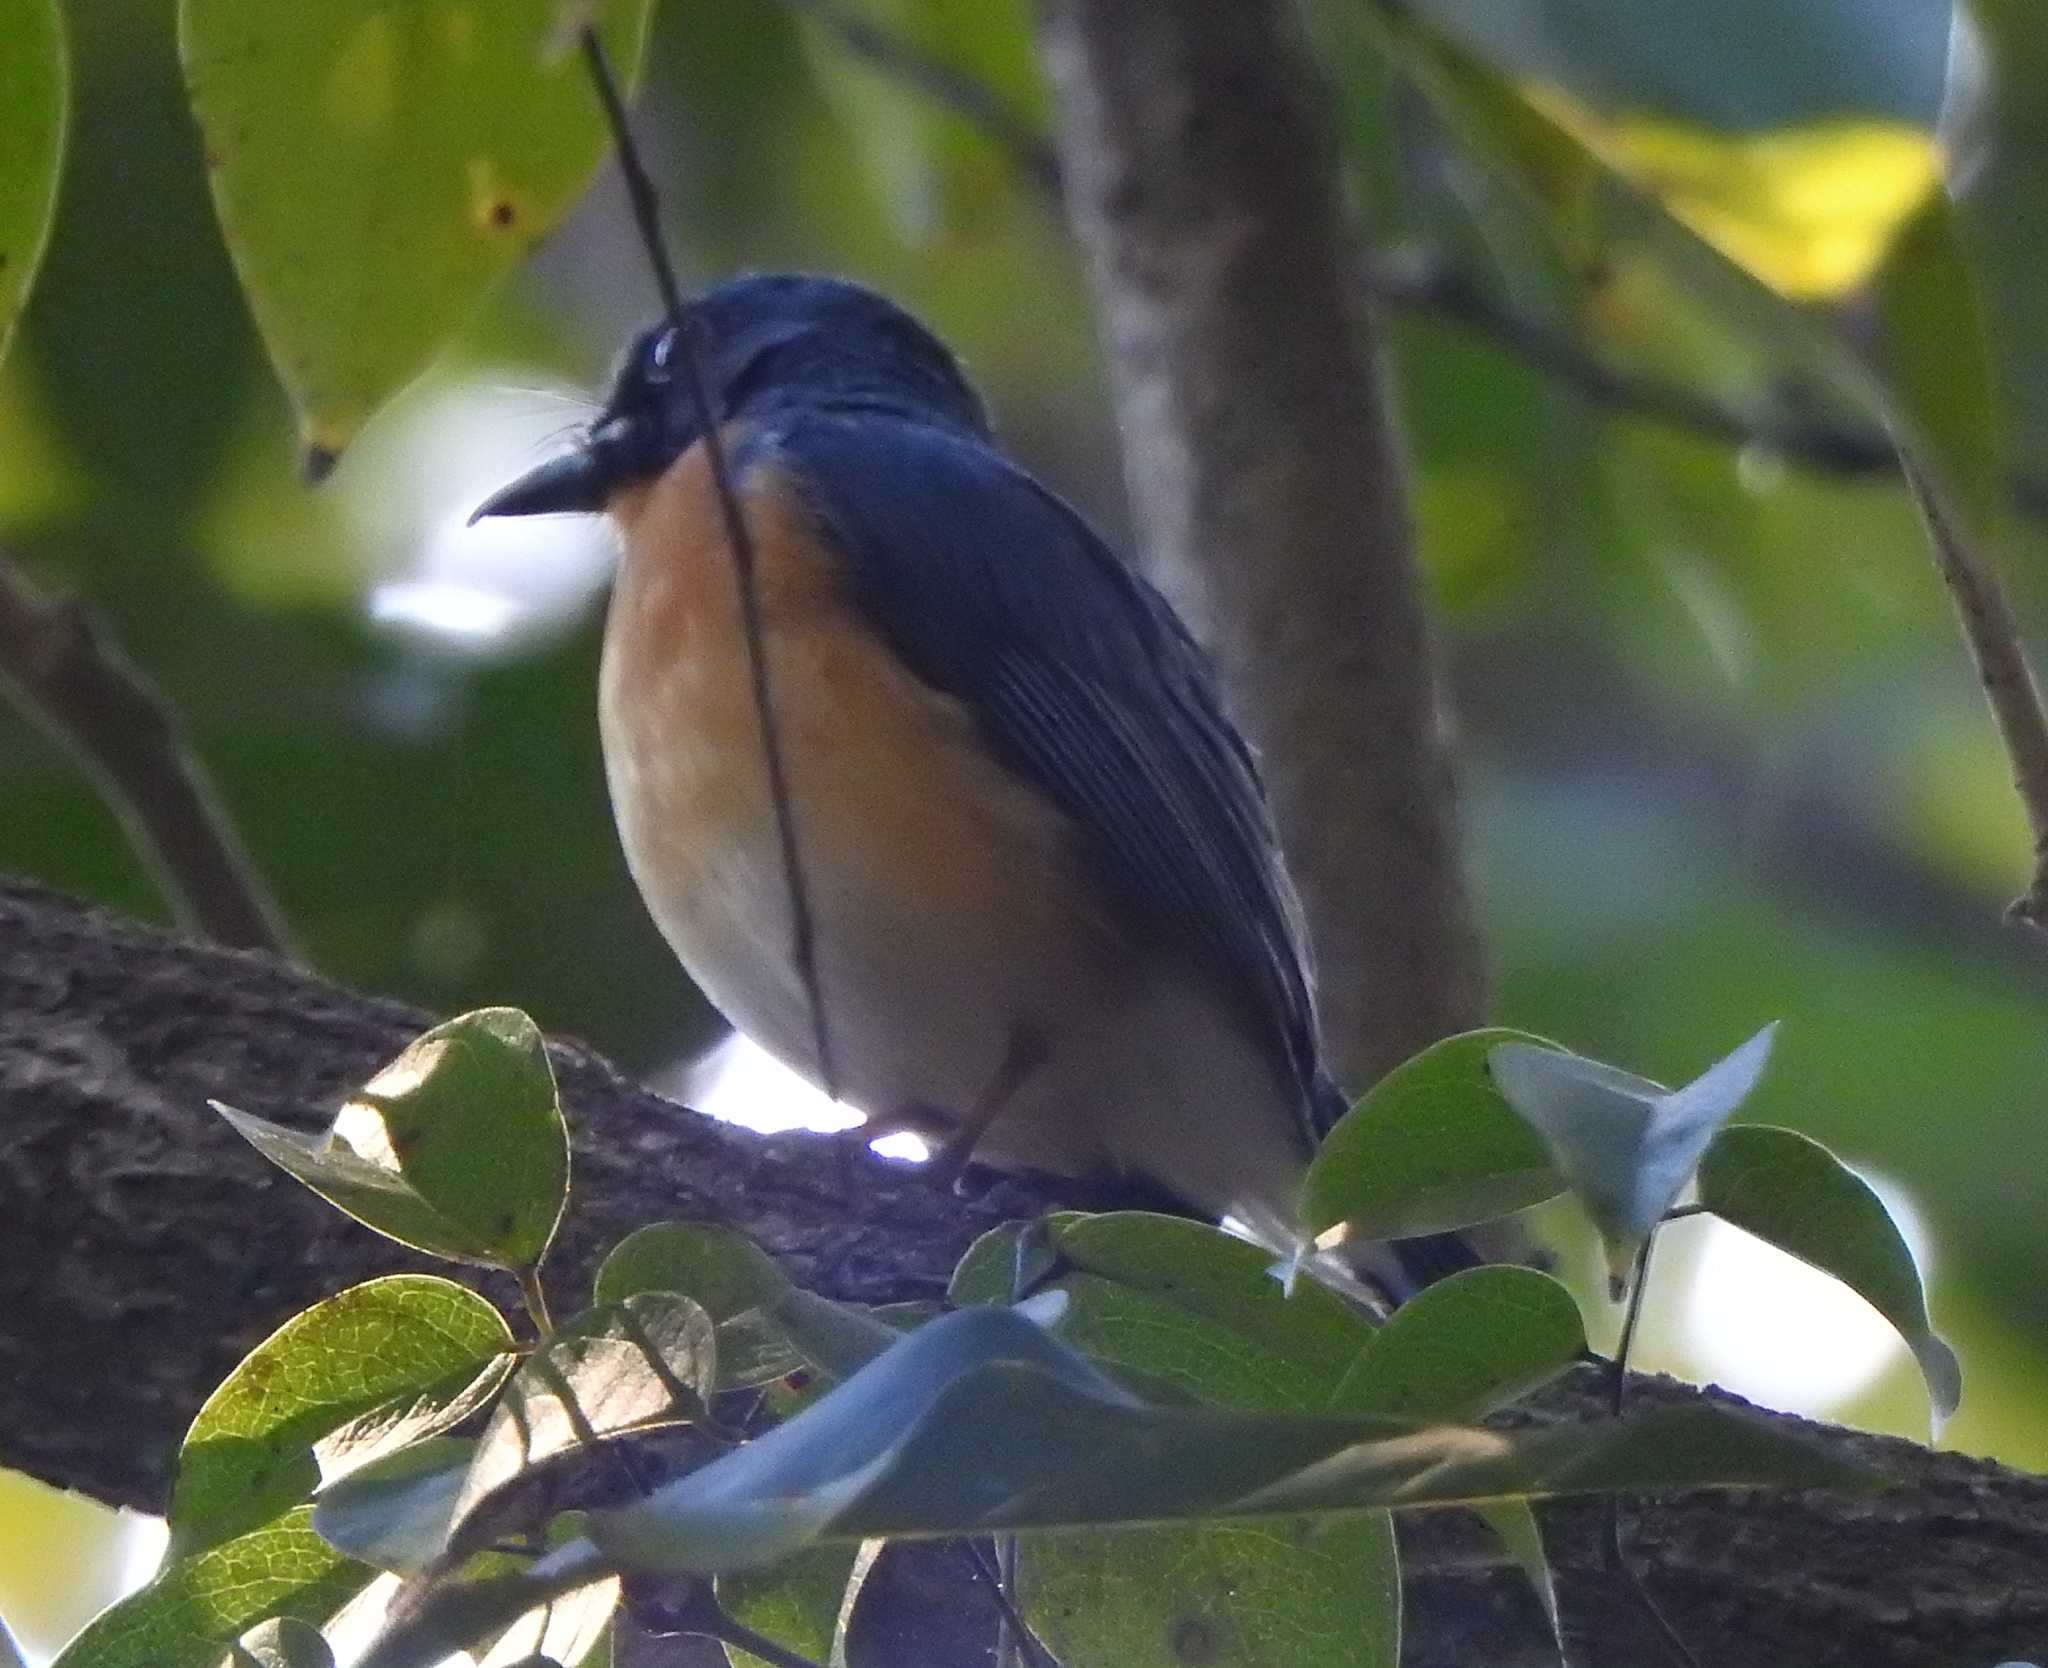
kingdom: Animalia
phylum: Chordata
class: Aves
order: Passeriformes
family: Muscicapidae
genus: Cyornis
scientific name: Cyornis tickelliae
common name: Tickell's blue flycatcher
